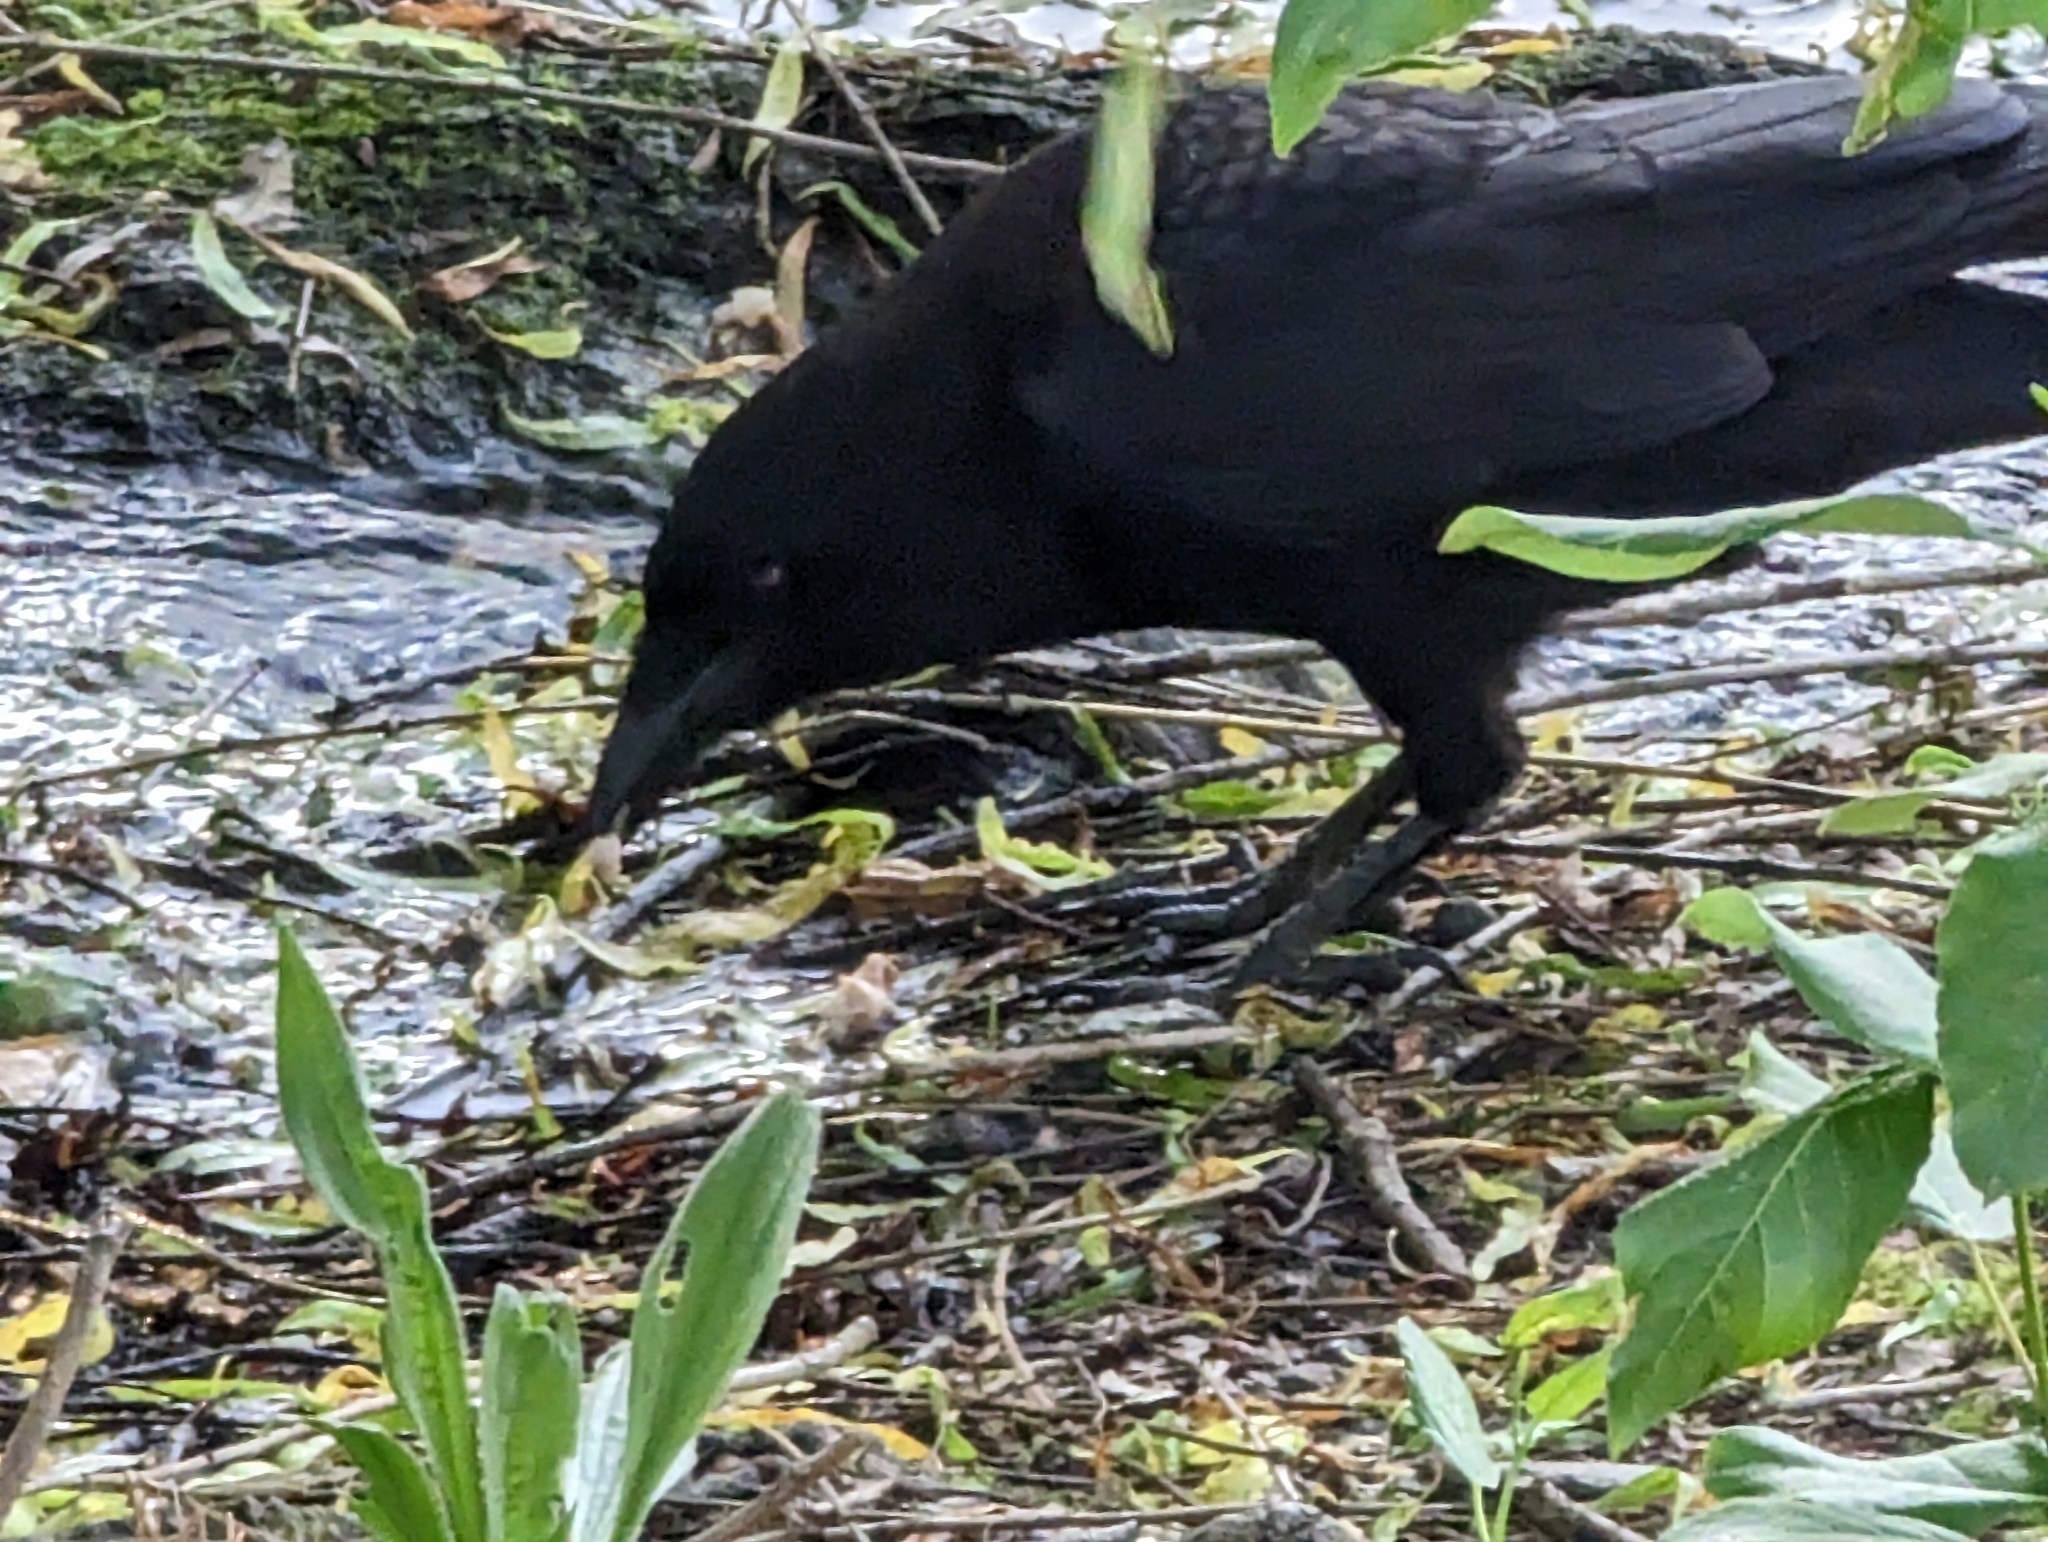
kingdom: Animalia
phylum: Chordata
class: Aves
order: Passeriformes
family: Corvidae
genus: Corvus
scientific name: Corvus brachyrhynchos
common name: American crow
